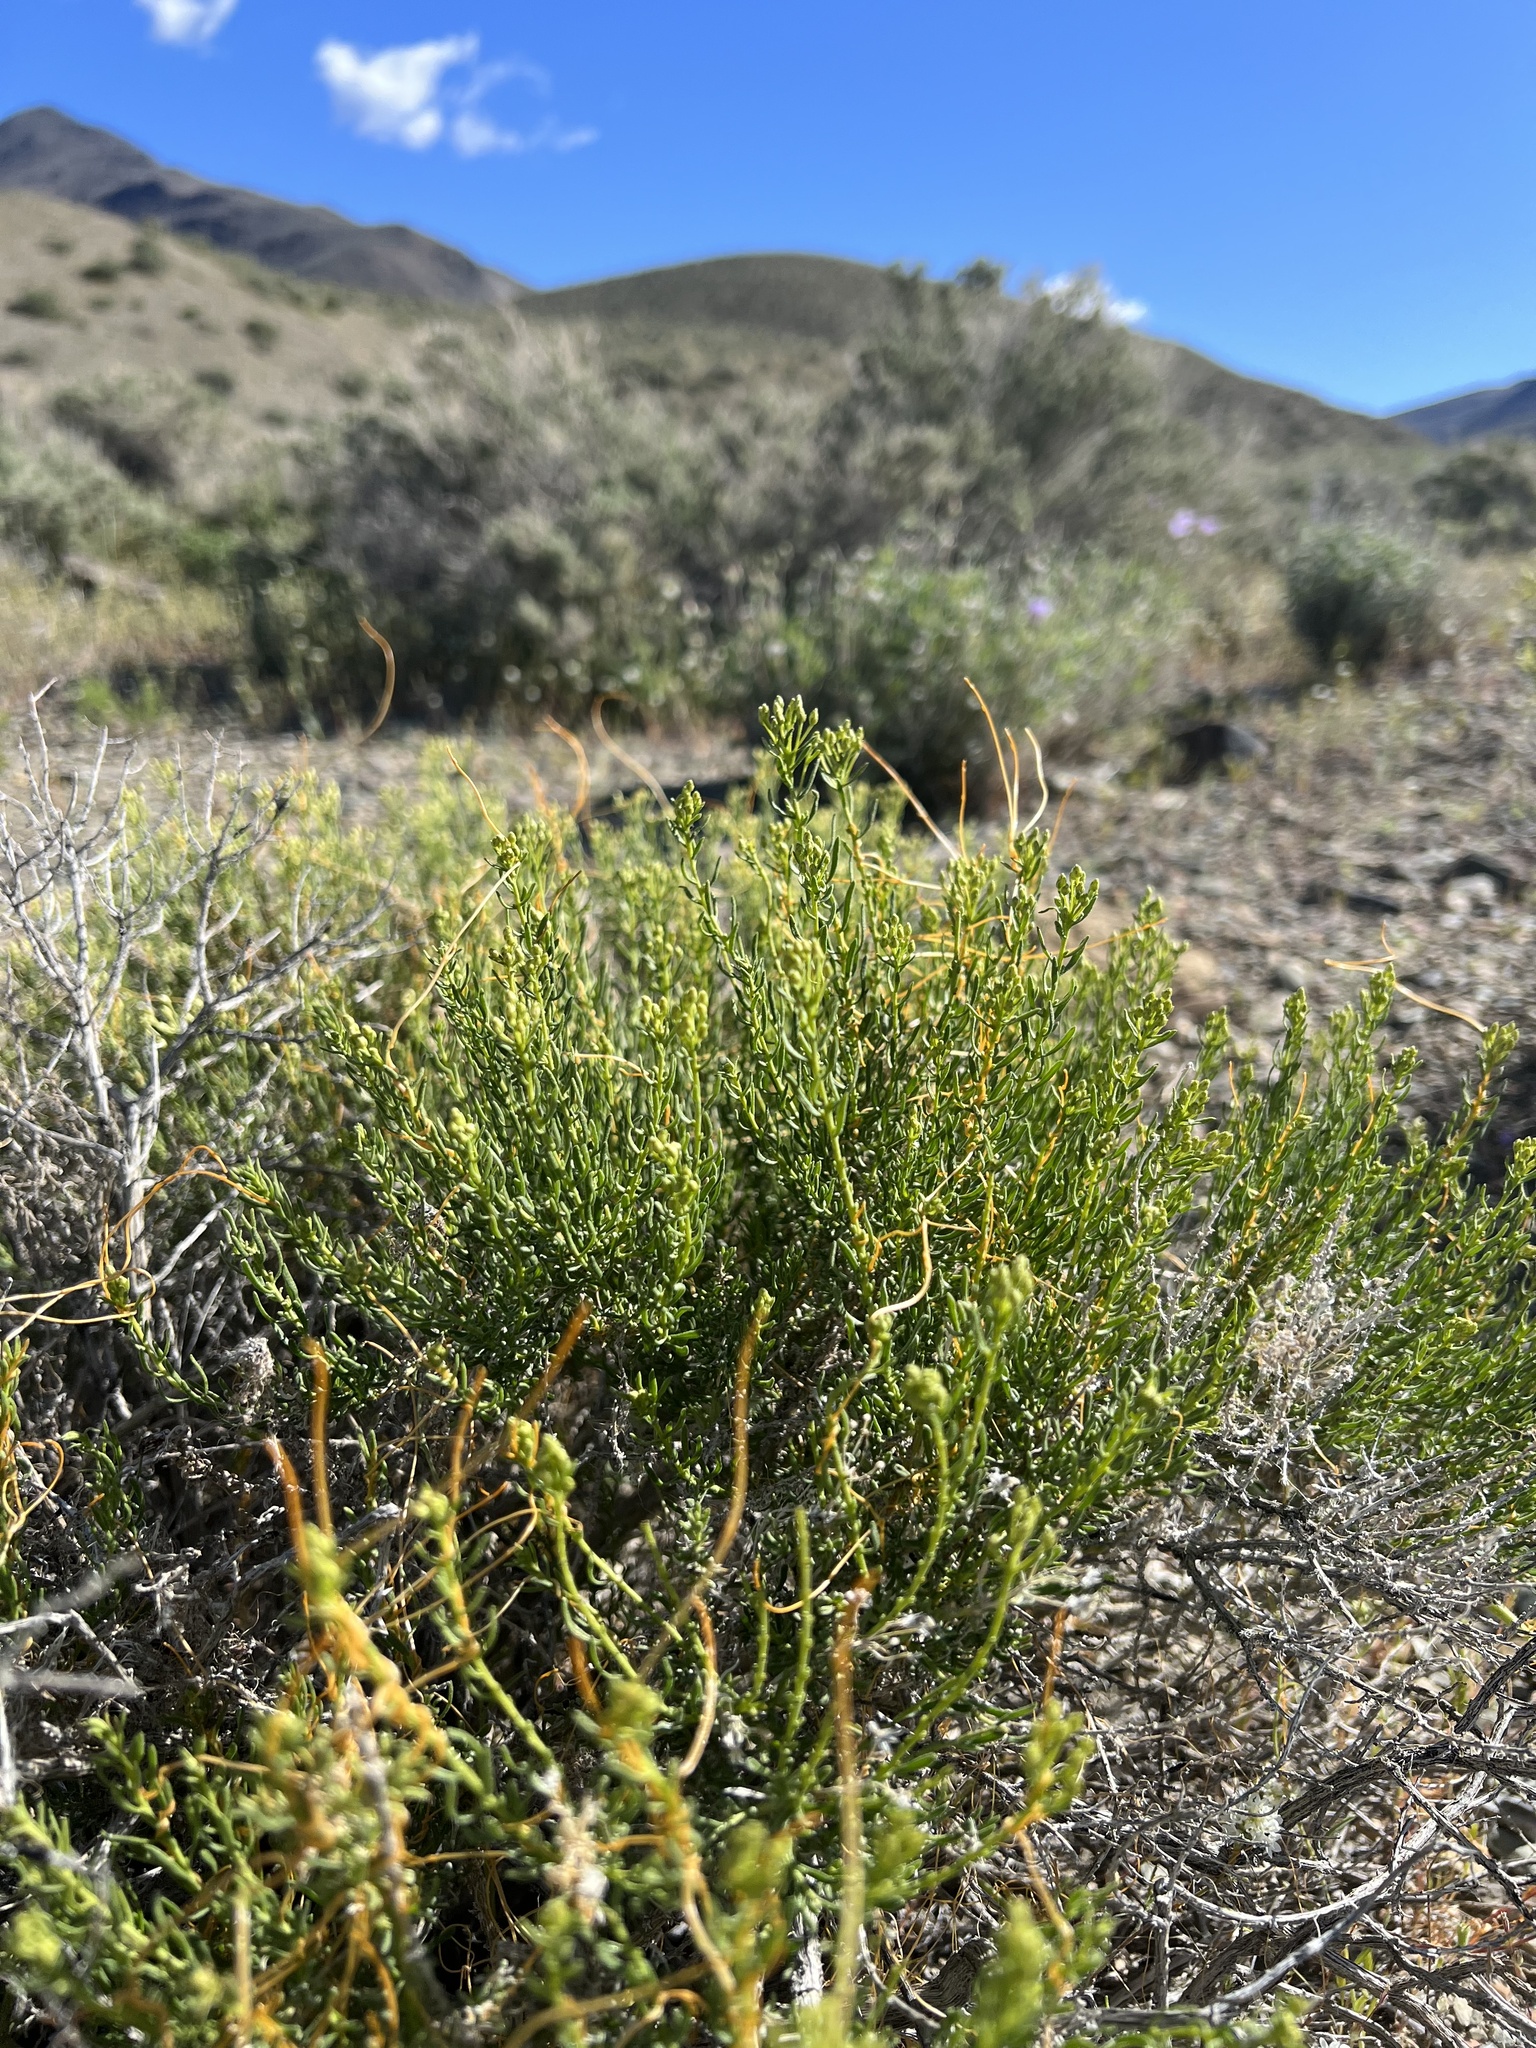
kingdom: Plantae
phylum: Tracheophyta
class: Magnoliopsida
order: Asterales
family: Asteraceae
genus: Ericameria
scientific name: Ericameria cooperi
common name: Cooper's goldenbush
